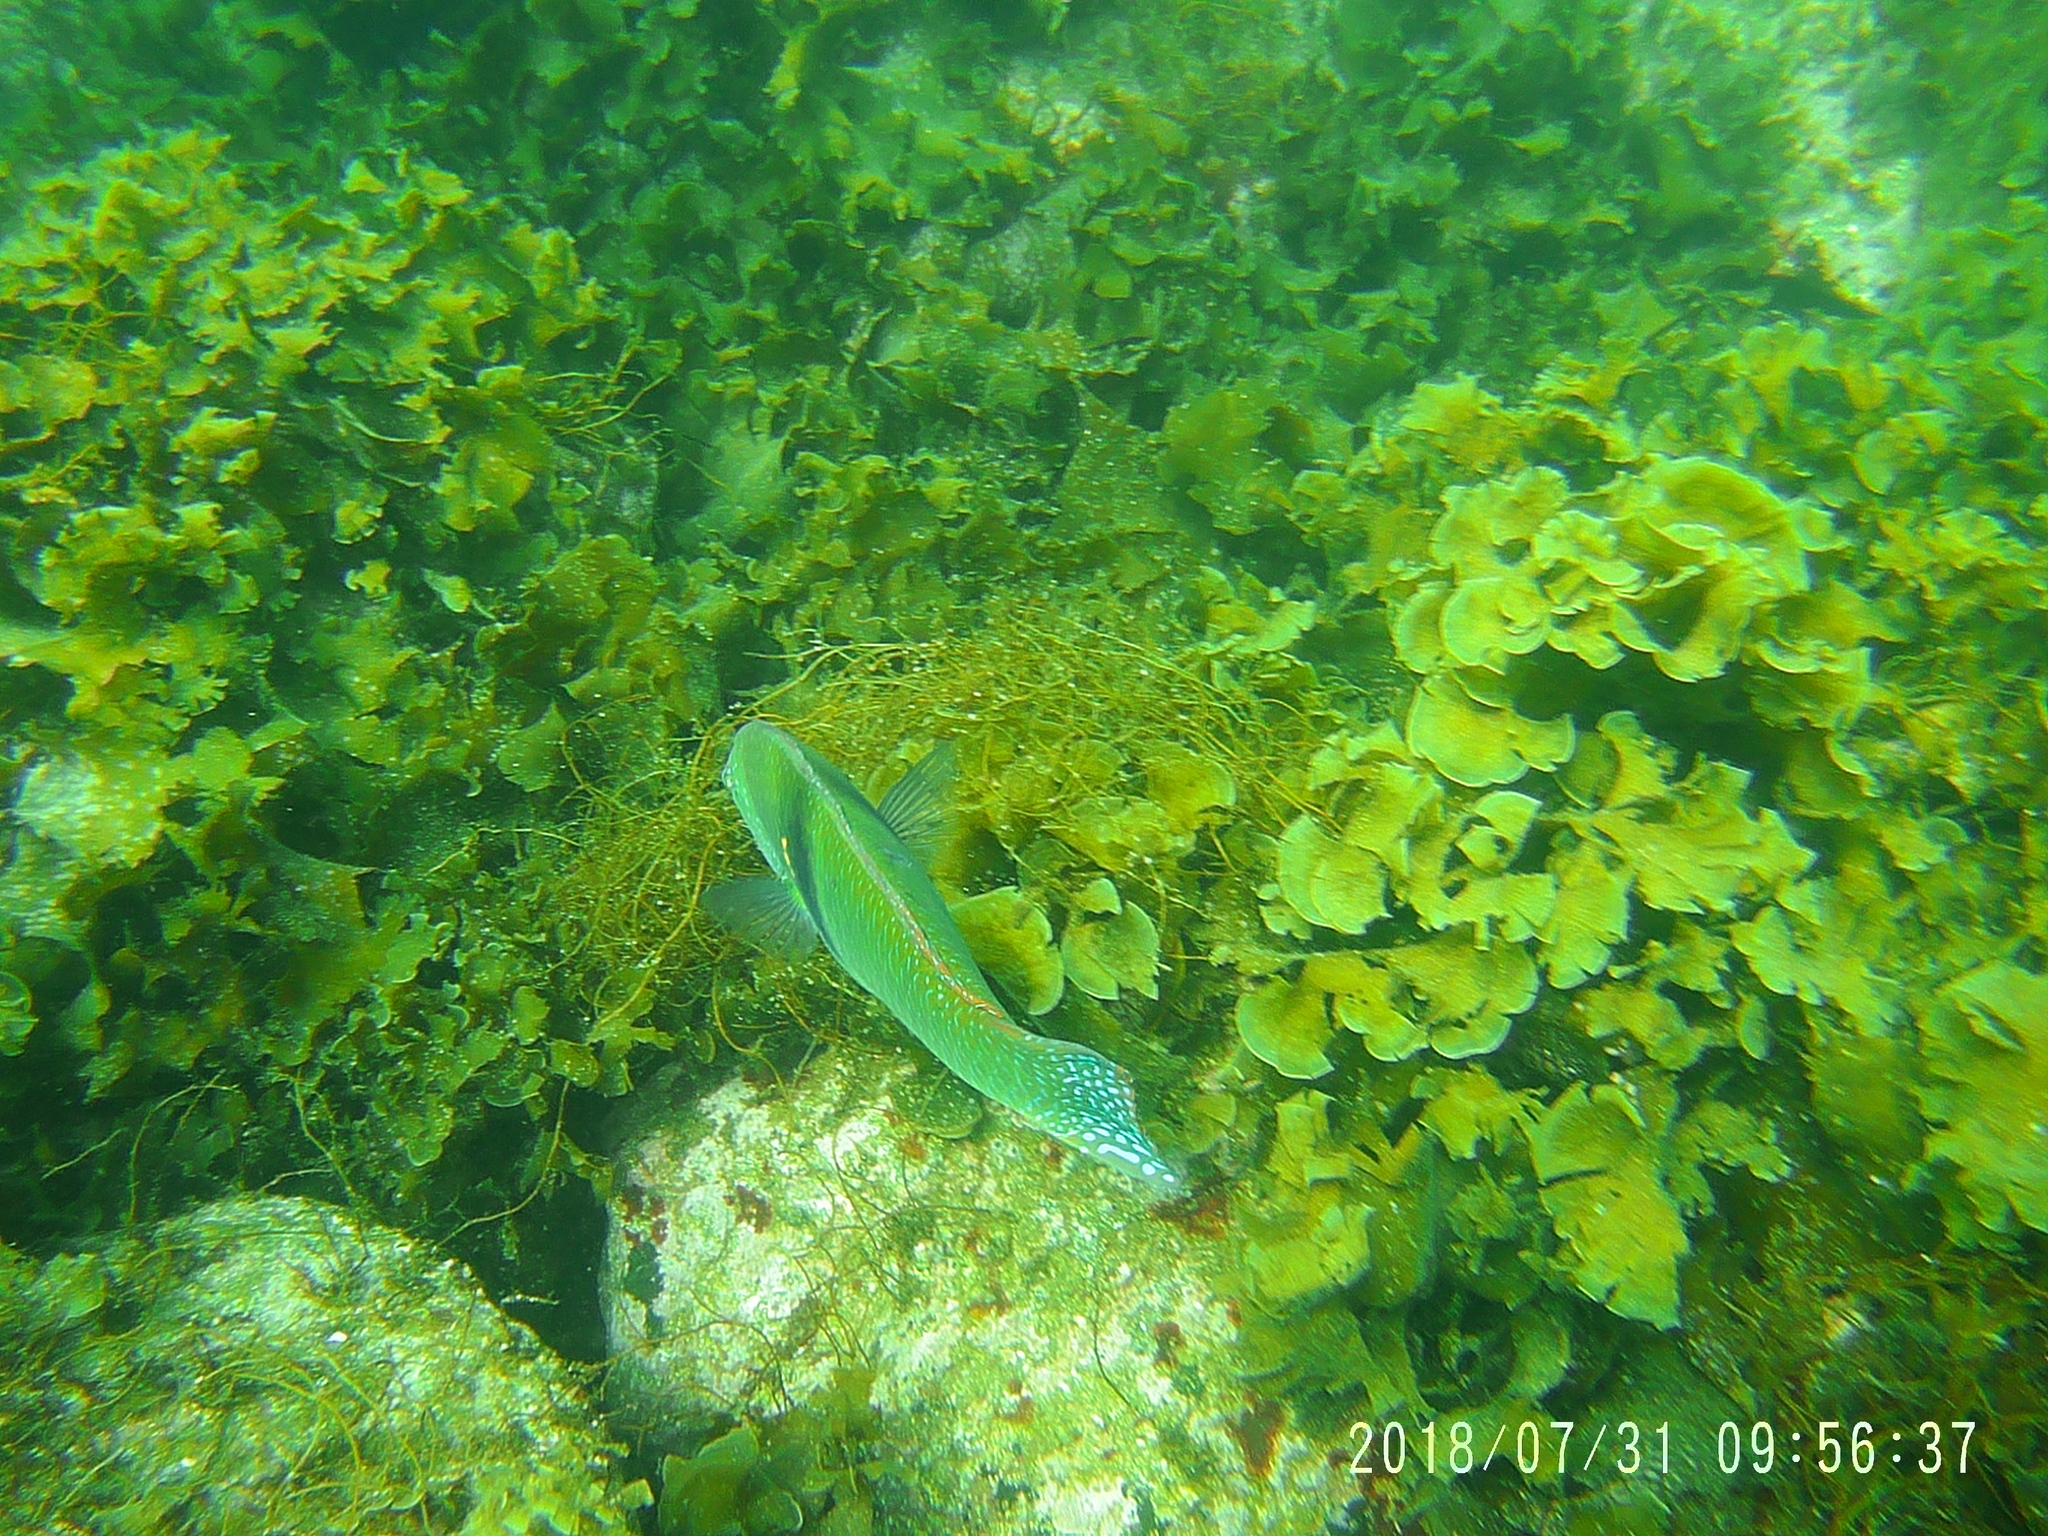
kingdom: Animalia
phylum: Chordata
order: Perciformes
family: Labridae
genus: Halichoeres
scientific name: Halichoeres nicholsi
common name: Spinster wrasse
